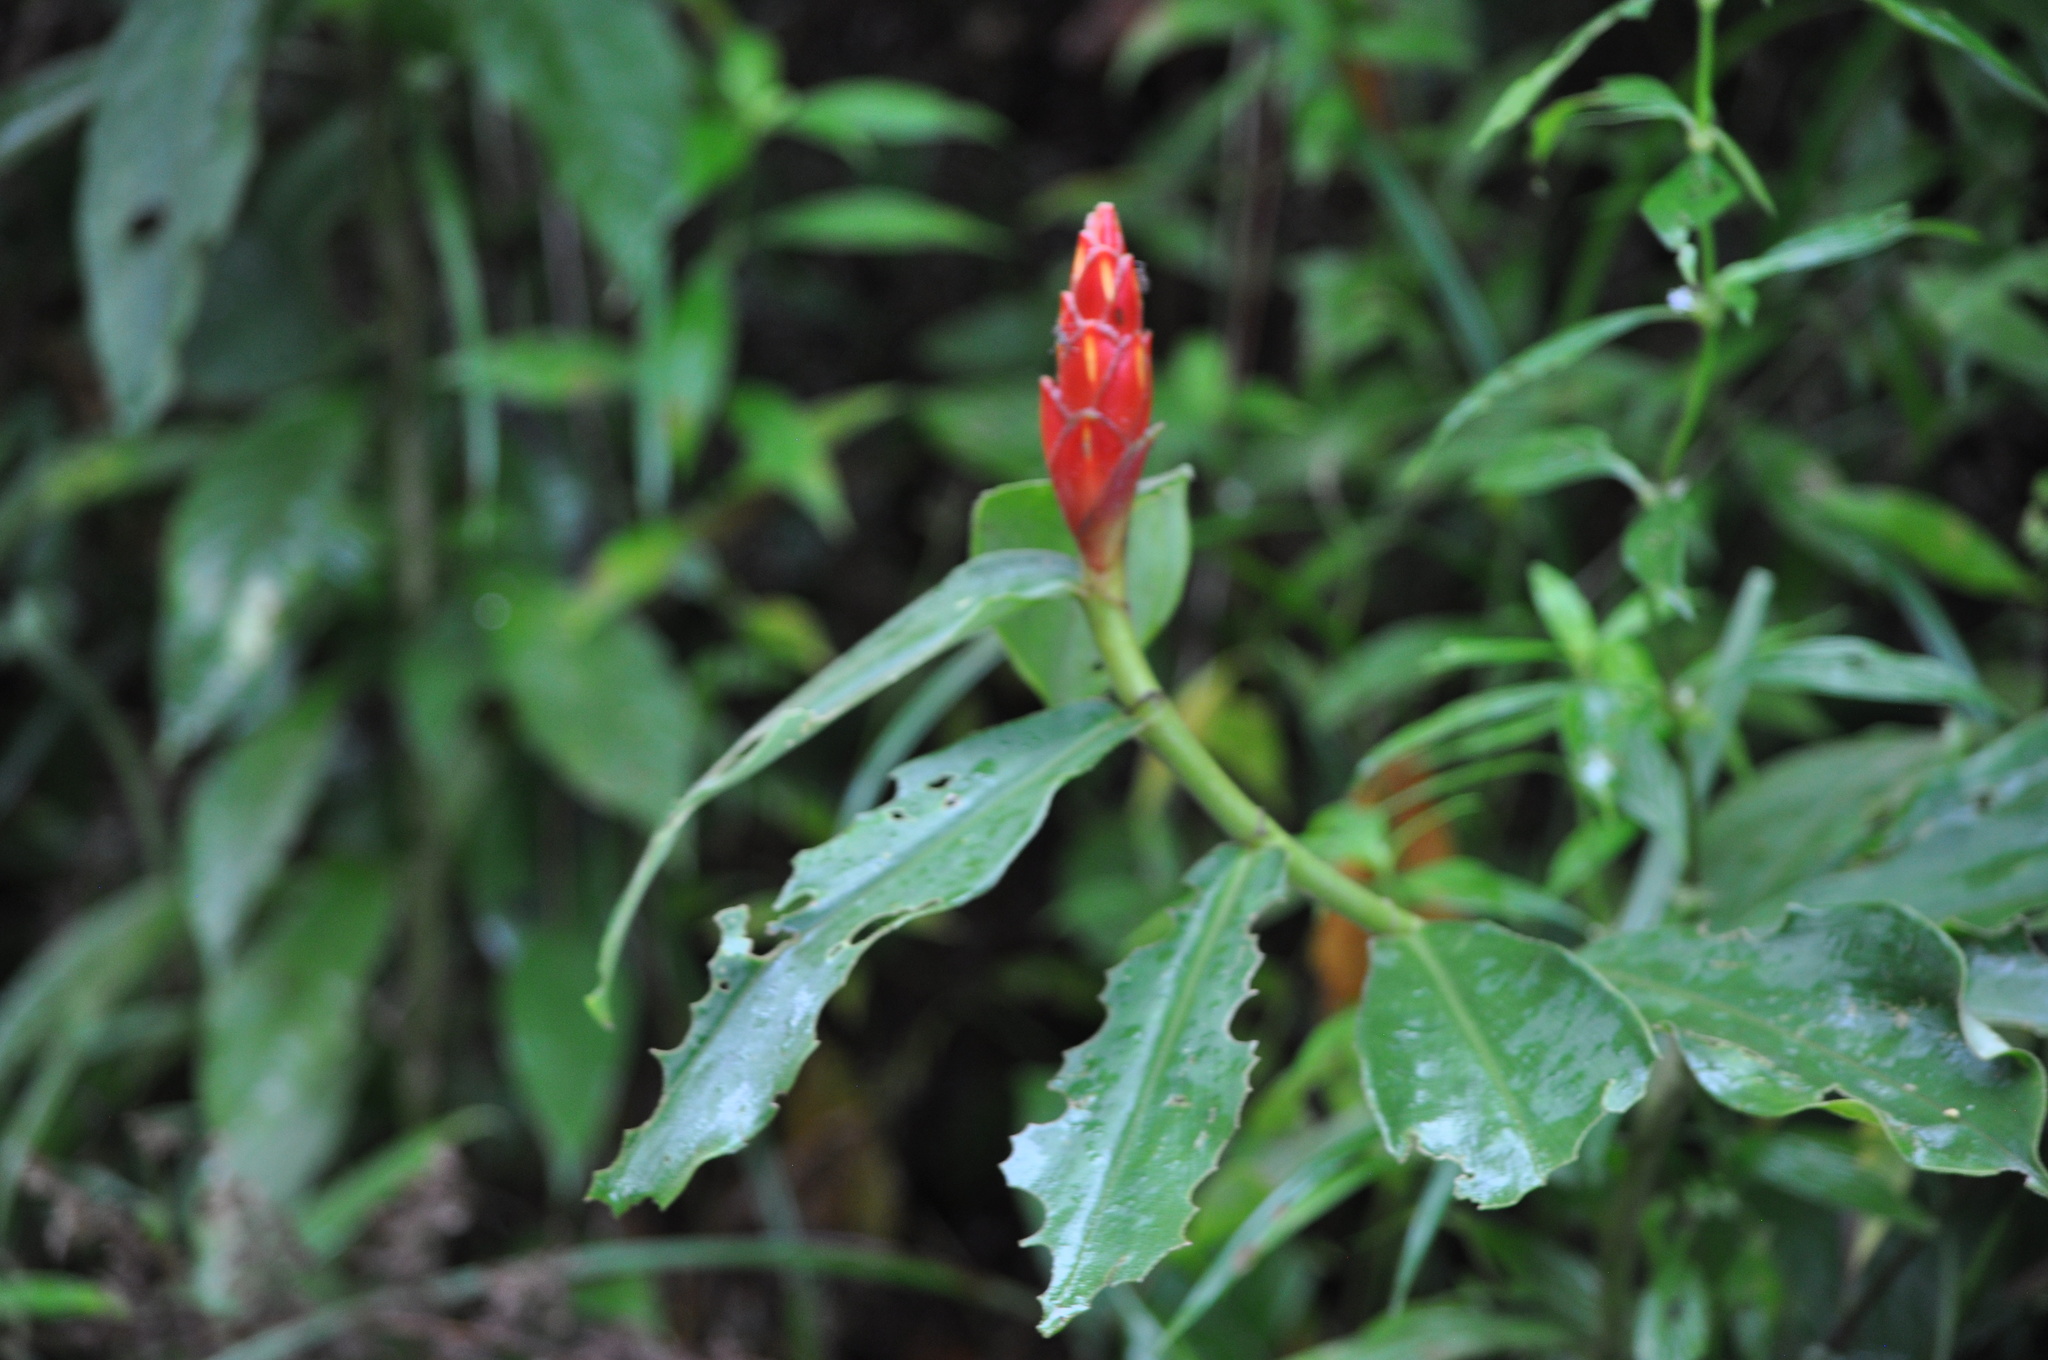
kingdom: Plantae
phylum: Tracheophyta
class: Liliopsida
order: Zingiberales
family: Costaceae
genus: Costus
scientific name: Costus pulverulentus
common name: Spiral ginger
